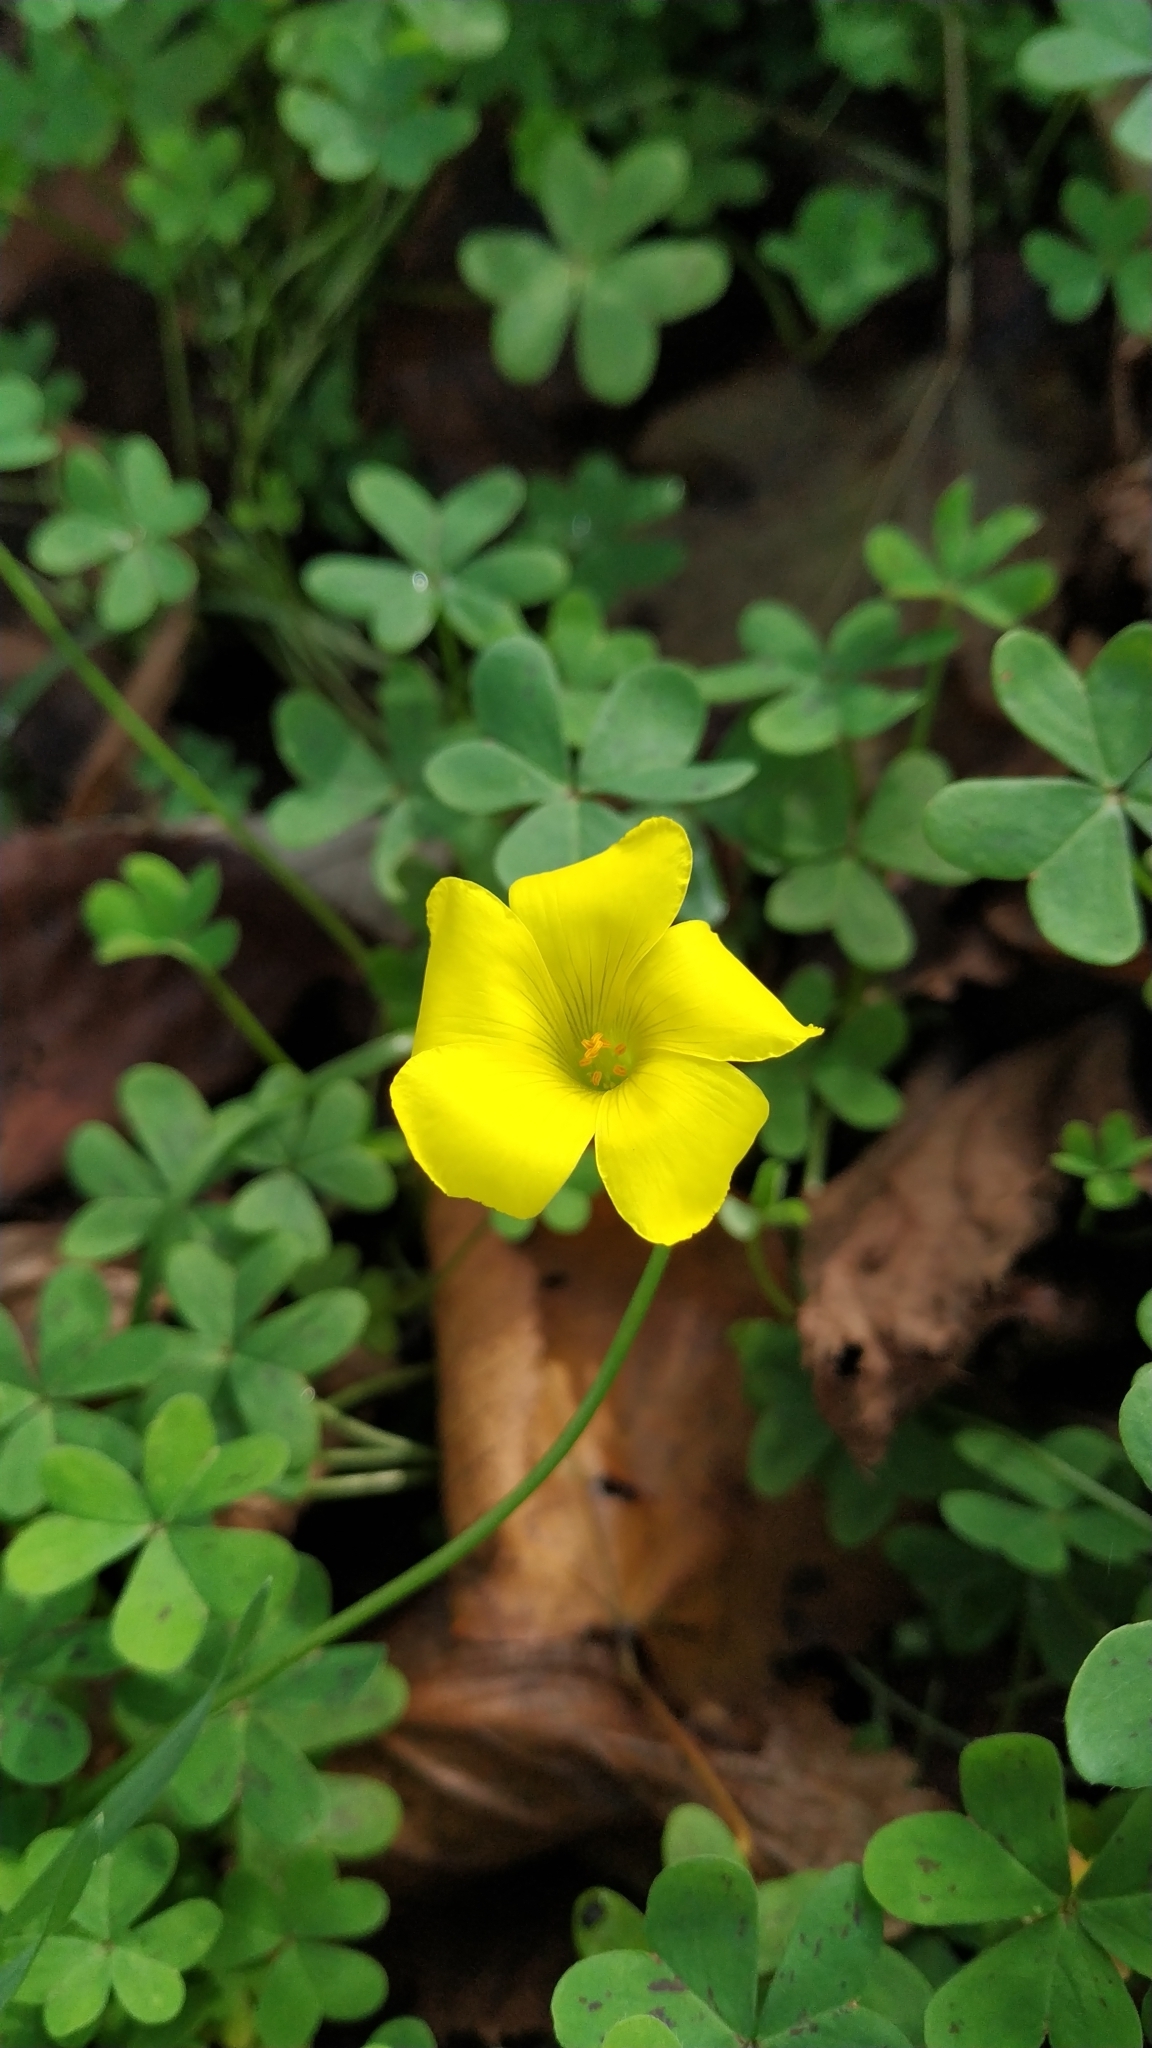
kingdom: Plantae
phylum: Tracheophyta
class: Magnoliopsida
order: Oxalidales
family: Oxalidaceae
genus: Oxalis
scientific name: Oxalis pes-caprae
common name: Bermuda-buttercup
